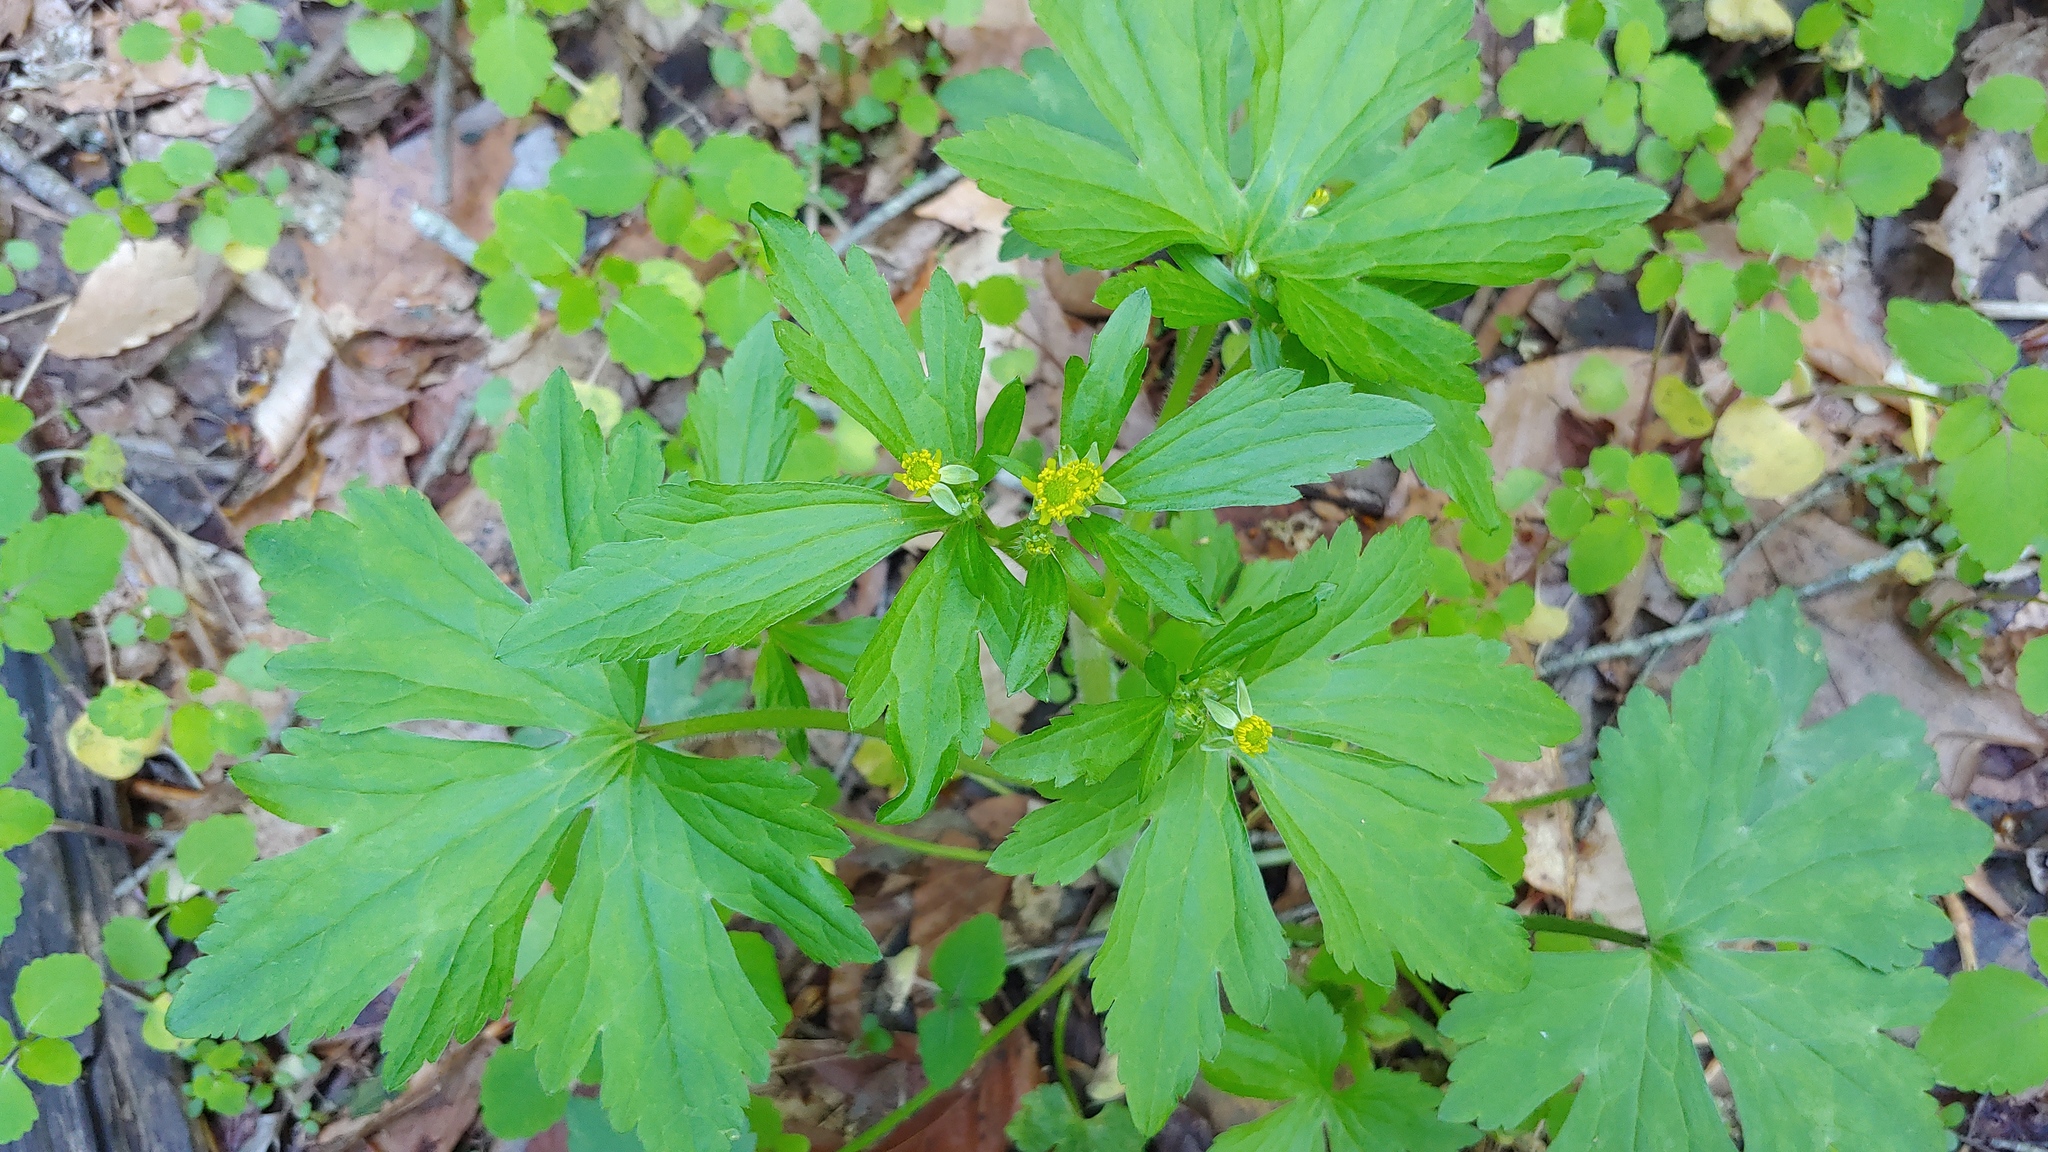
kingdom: Plantae
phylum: Tracheophyta
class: Magnoliopsida
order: Ranunculales
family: Ranunculaceae
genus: Ranunculus
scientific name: Ranunculus recurvatus
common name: Blisterwort
